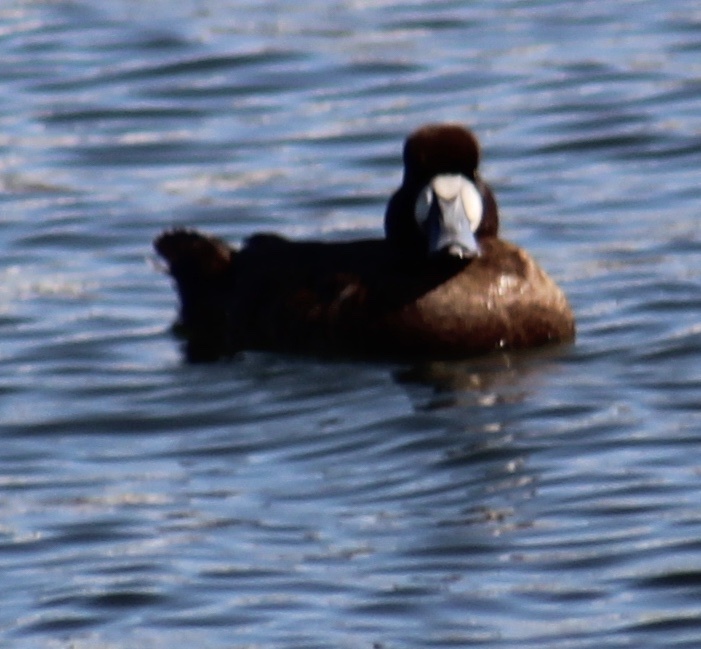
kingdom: Animalia
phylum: Chordata
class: Aves
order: Anseriformes
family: Anatidae
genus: Aythya
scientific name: Aythya marila
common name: Greater scaup
